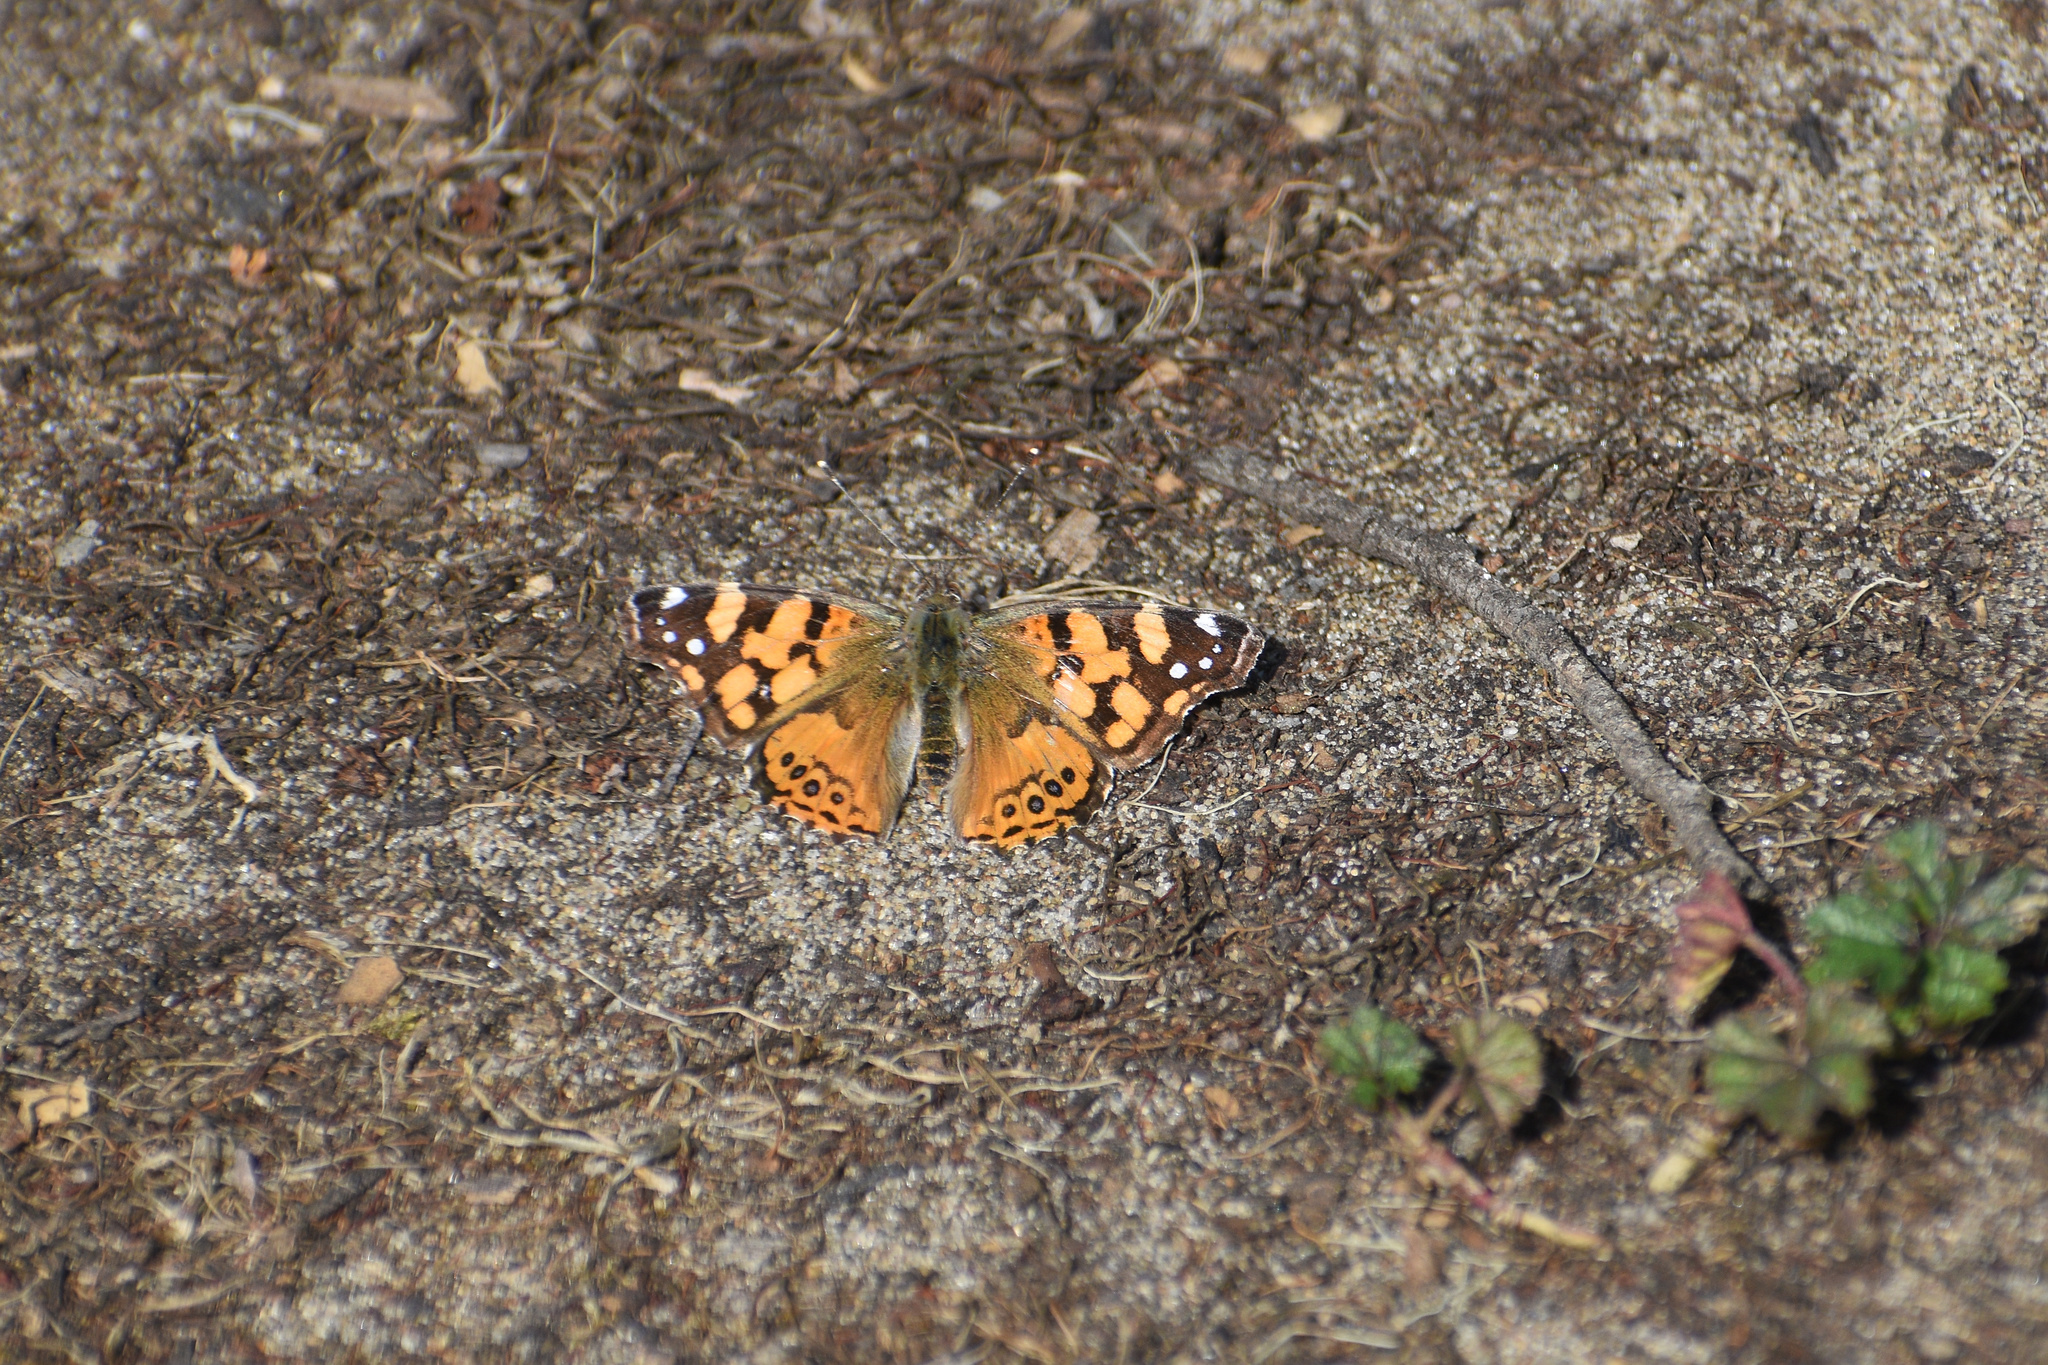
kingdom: Animalia
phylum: Arthropoda
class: Insecta
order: Lepidoptera
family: Nymphalidae
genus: Vanessa
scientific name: Vanessa annabella
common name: West coast lady
